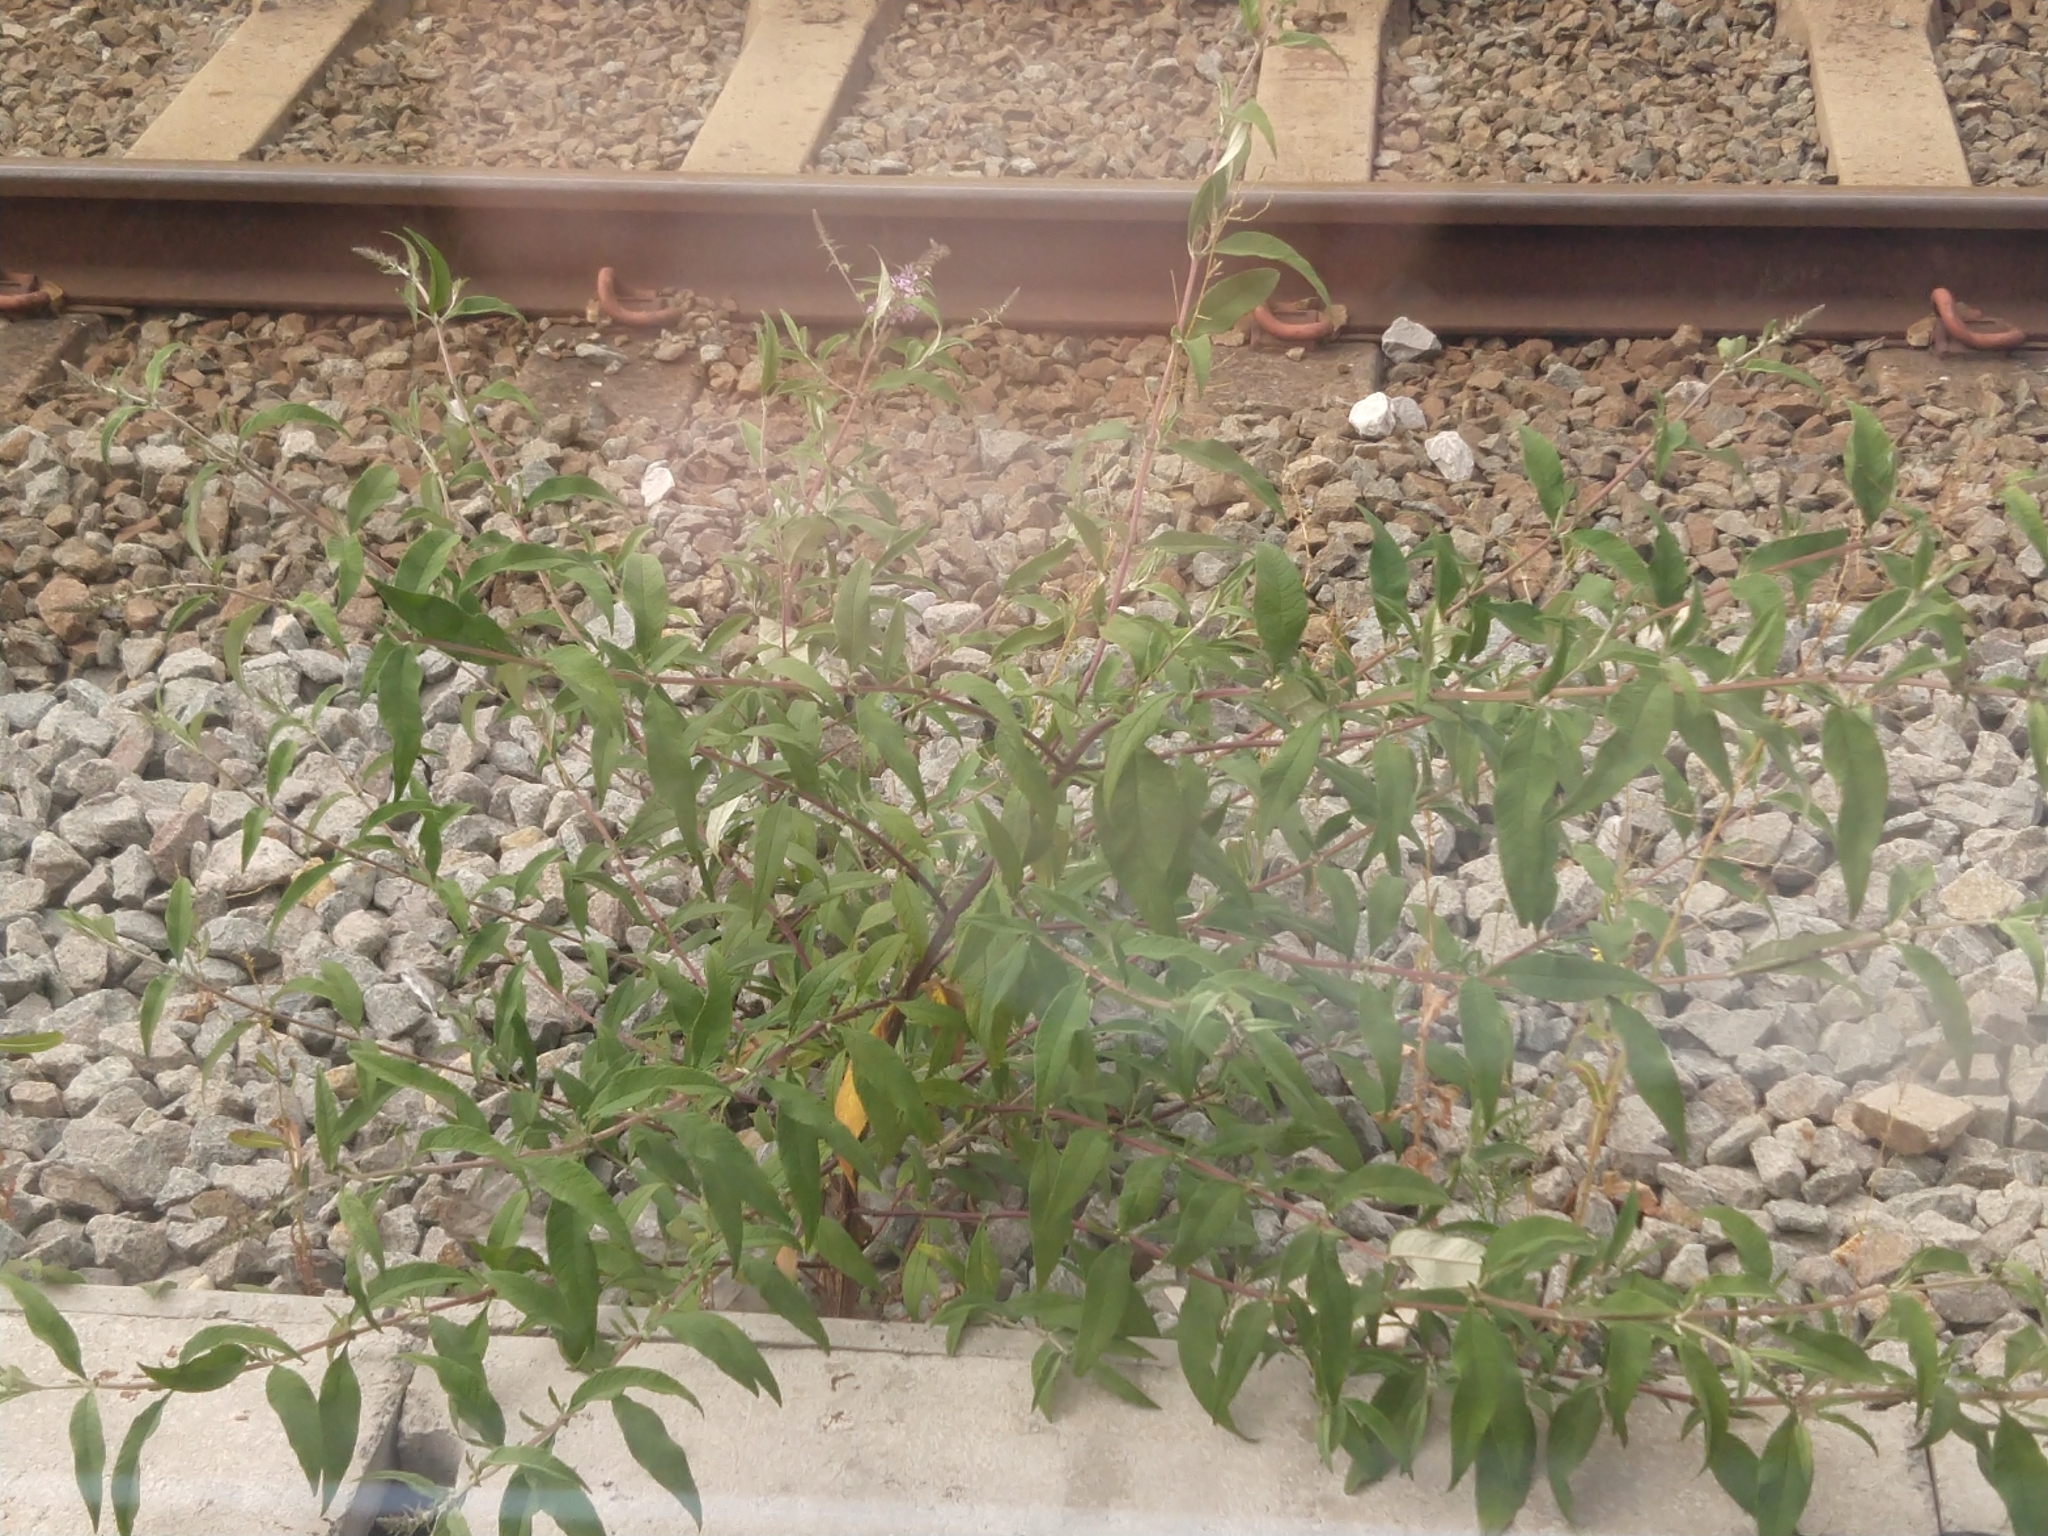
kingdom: Plantae
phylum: Tracheophyta
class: Magnoliopsida
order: Lamiales
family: Scrophulariaceae
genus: Buddleja
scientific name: Buddleja davidii
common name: Butterfly-bush
